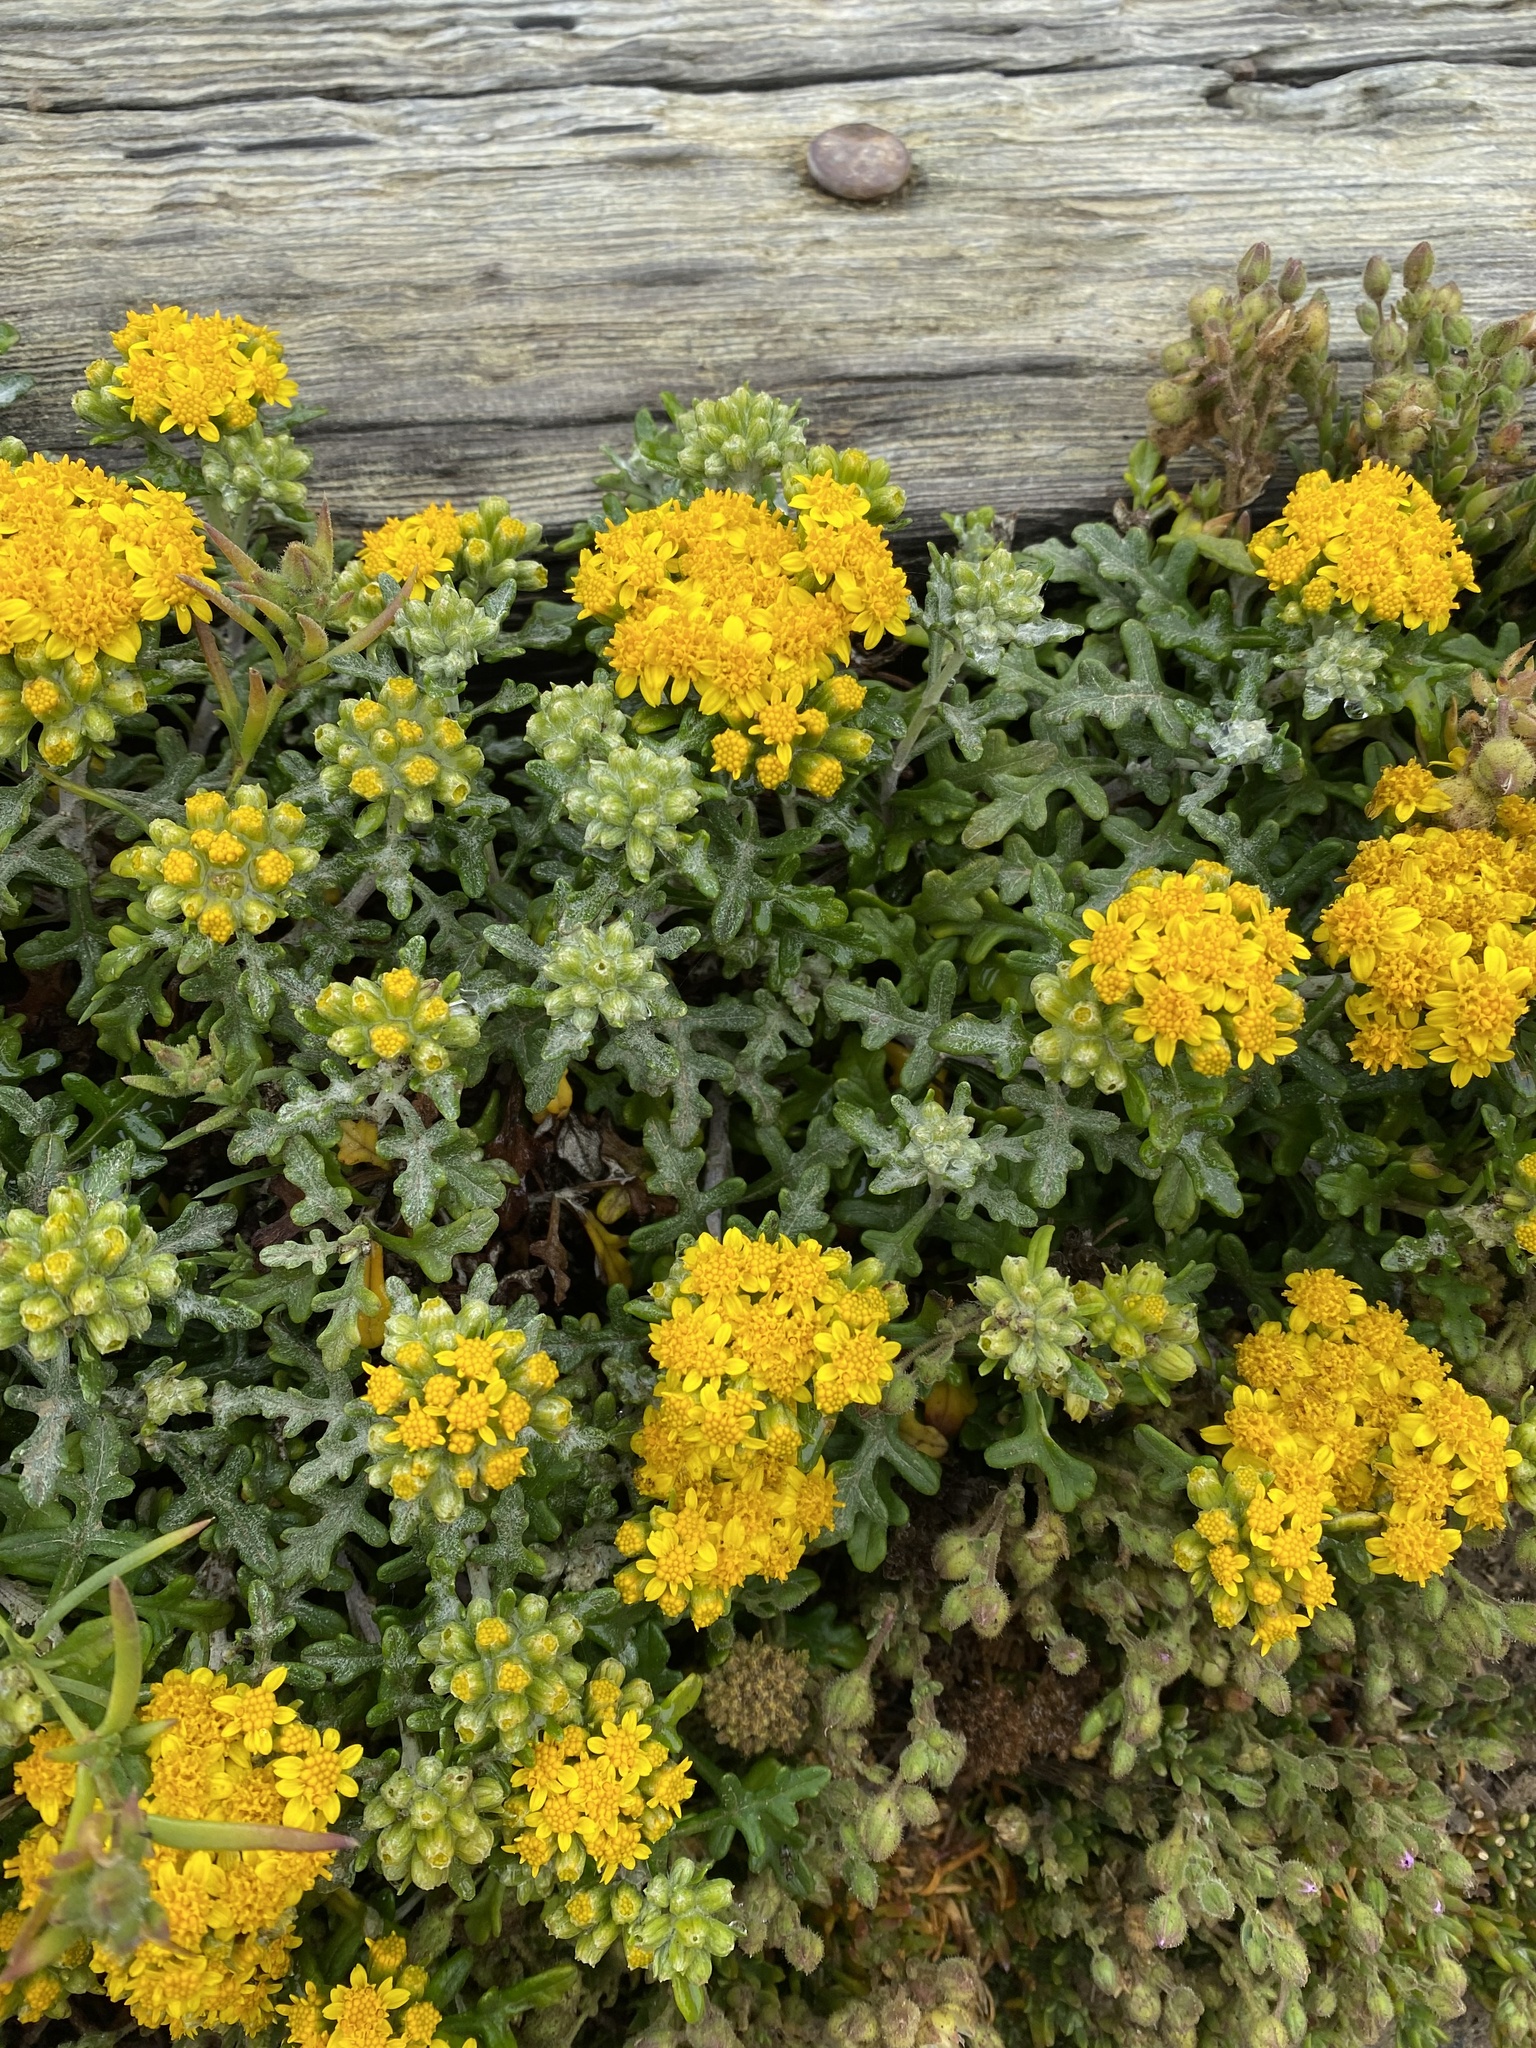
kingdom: Plantae
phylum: Tracheophyta
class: Magnoliopsida
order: Asterales
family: Asteraceae
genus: Eriophyllum
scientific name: Eriophyllum staechadifolium
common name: Lizardtail
